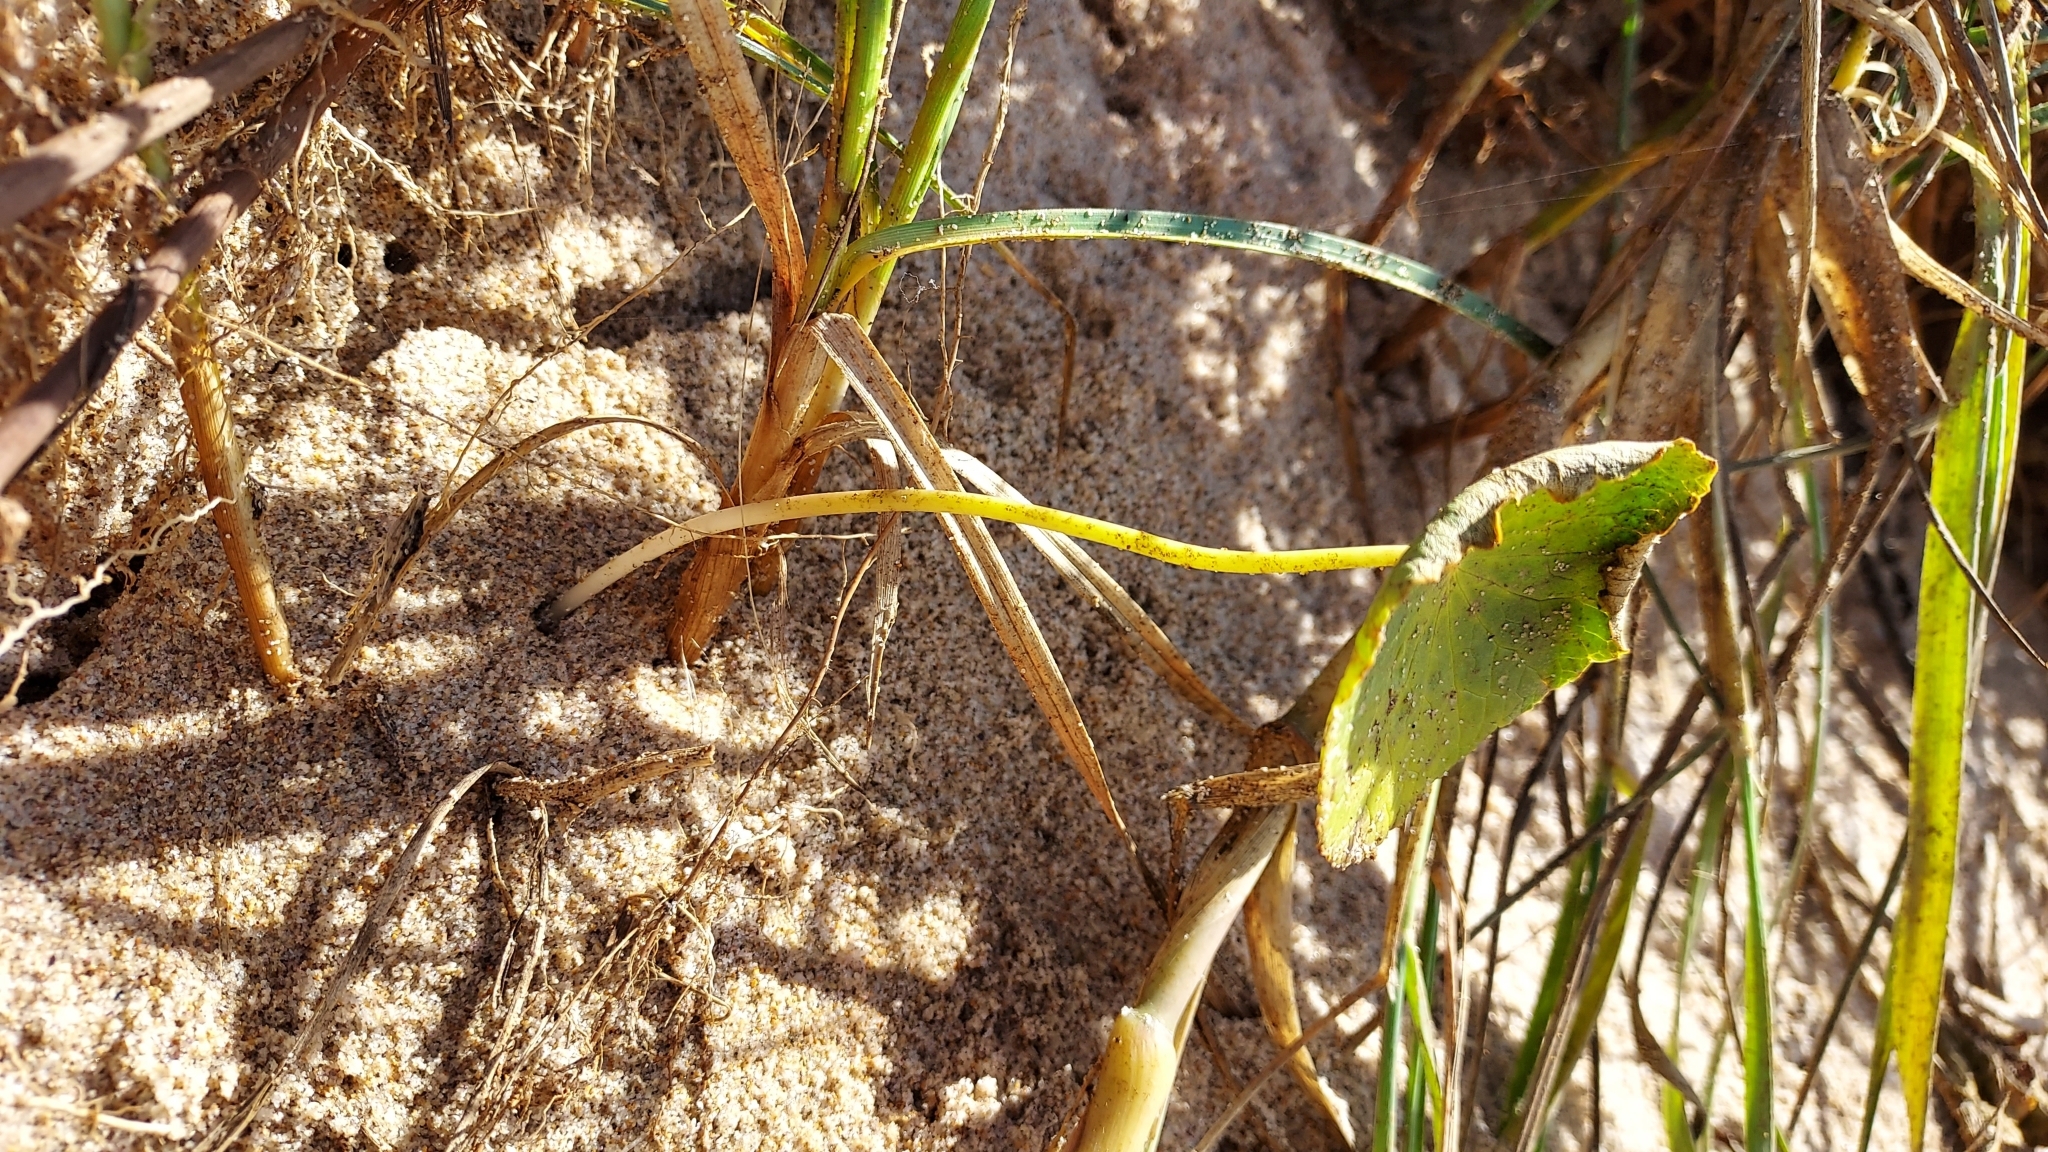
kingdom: Plantae
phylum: Tracheophyta
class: Magnoliopsida
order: Apiales
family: Araliaceae
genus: Hydrocotyle
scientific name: Hydrocotyle bonariensis
